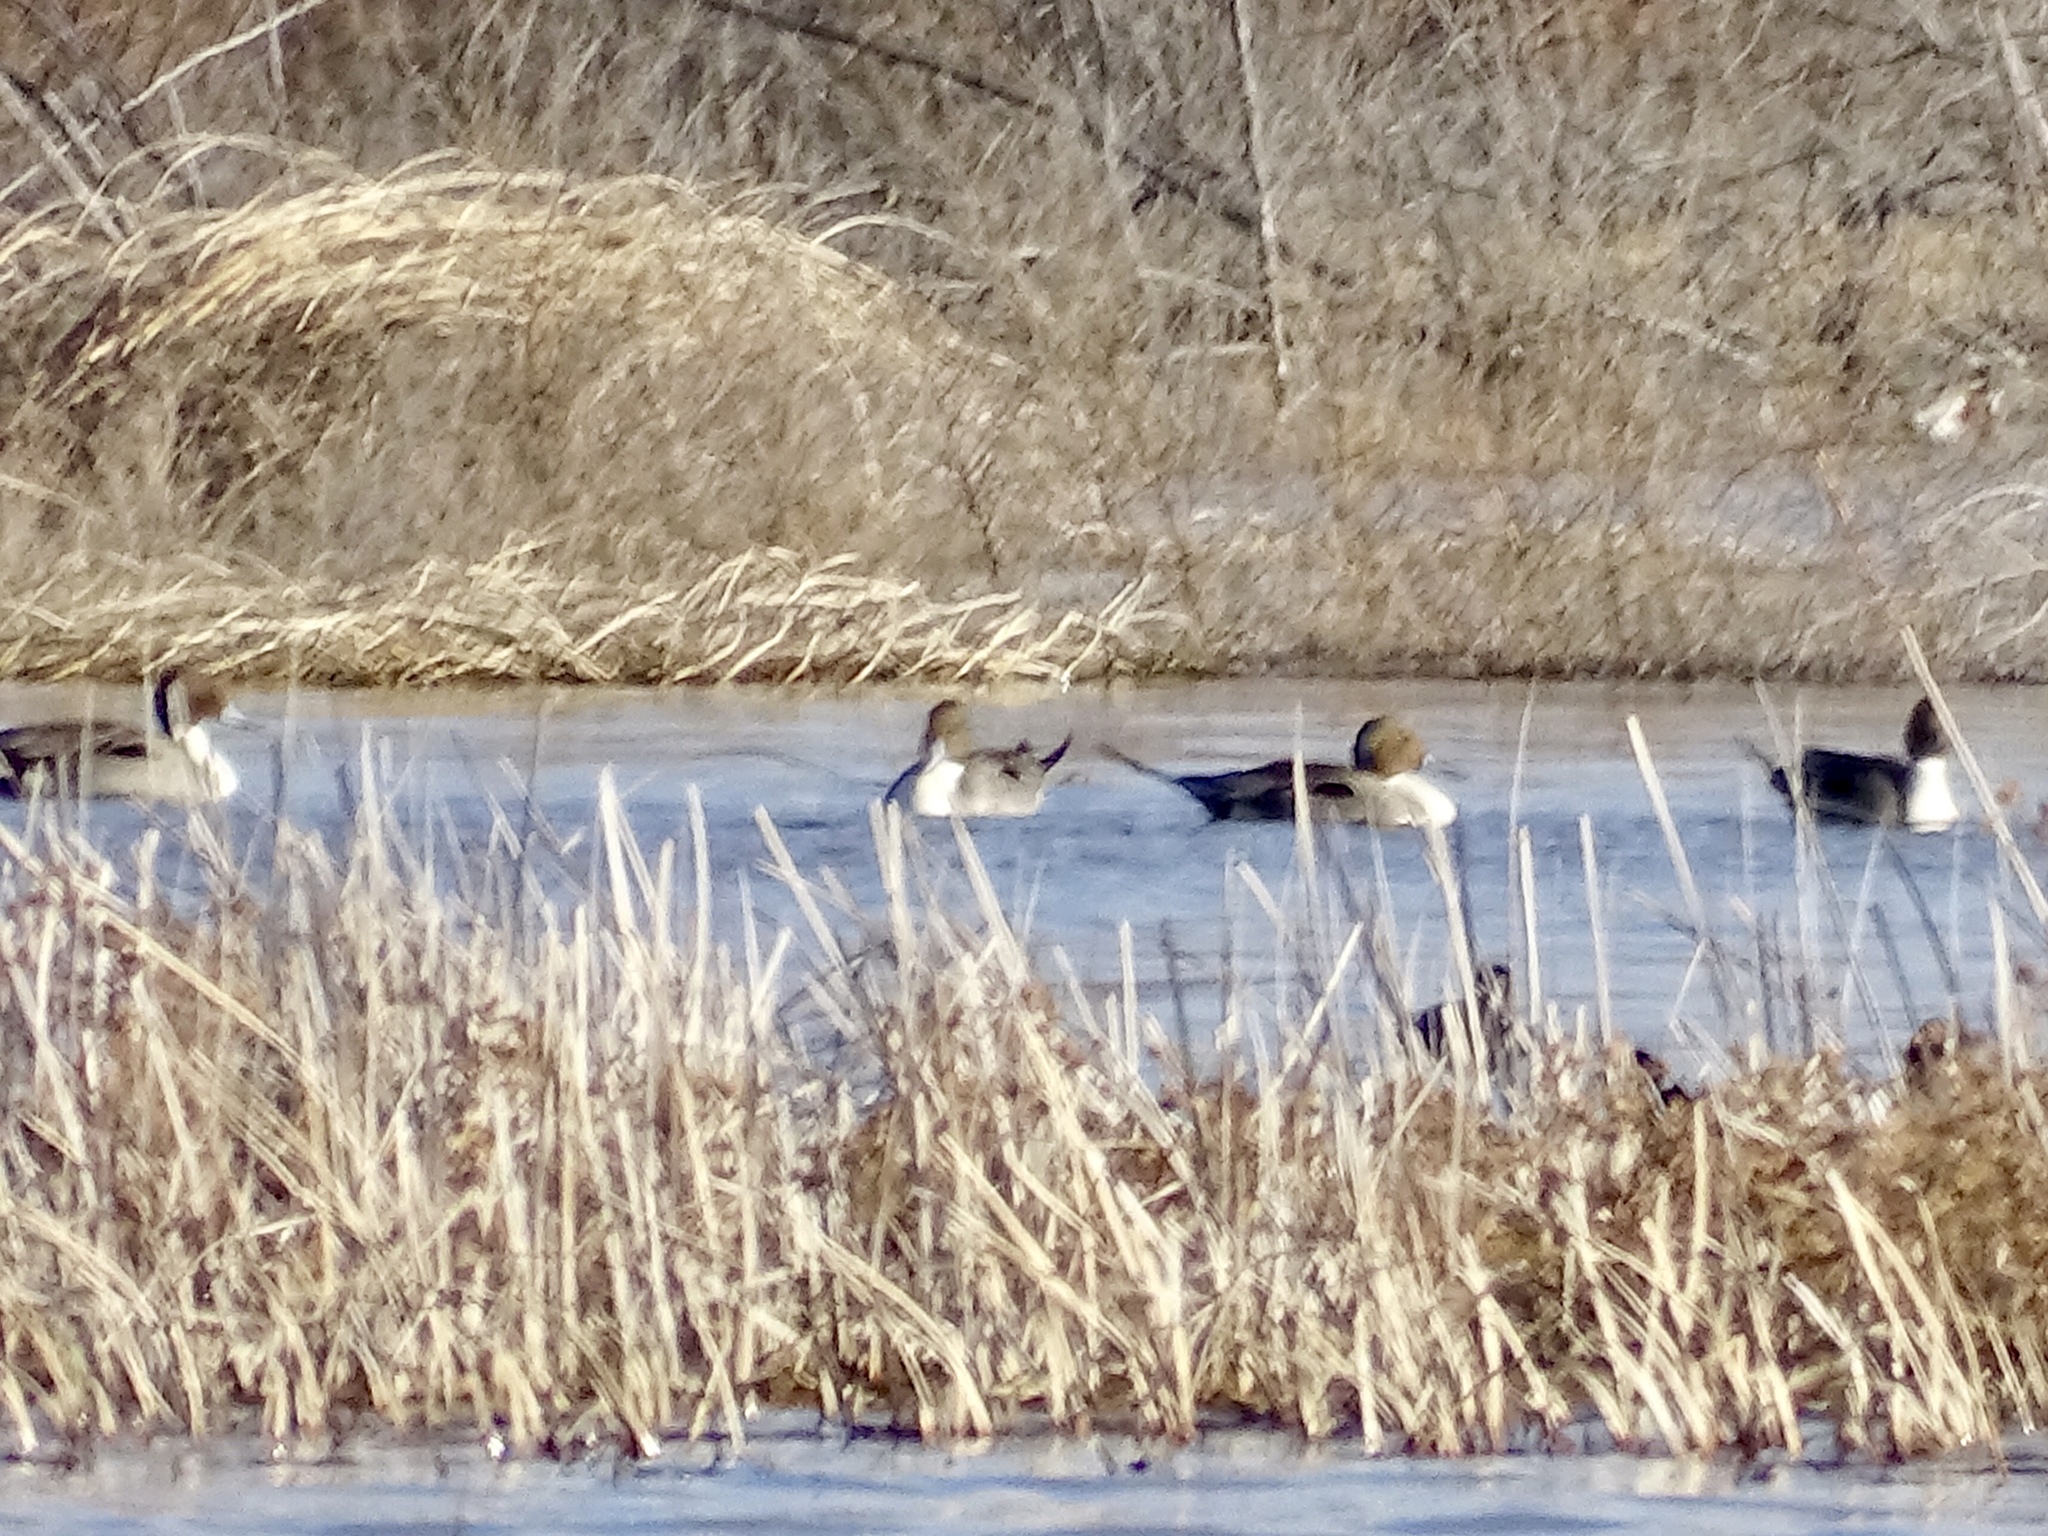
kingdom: Animalia
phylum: Chordata
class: Aves
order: Anseriformes
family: Anatidae
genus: Anas
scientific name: Anas acuta
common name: Northern pintail
